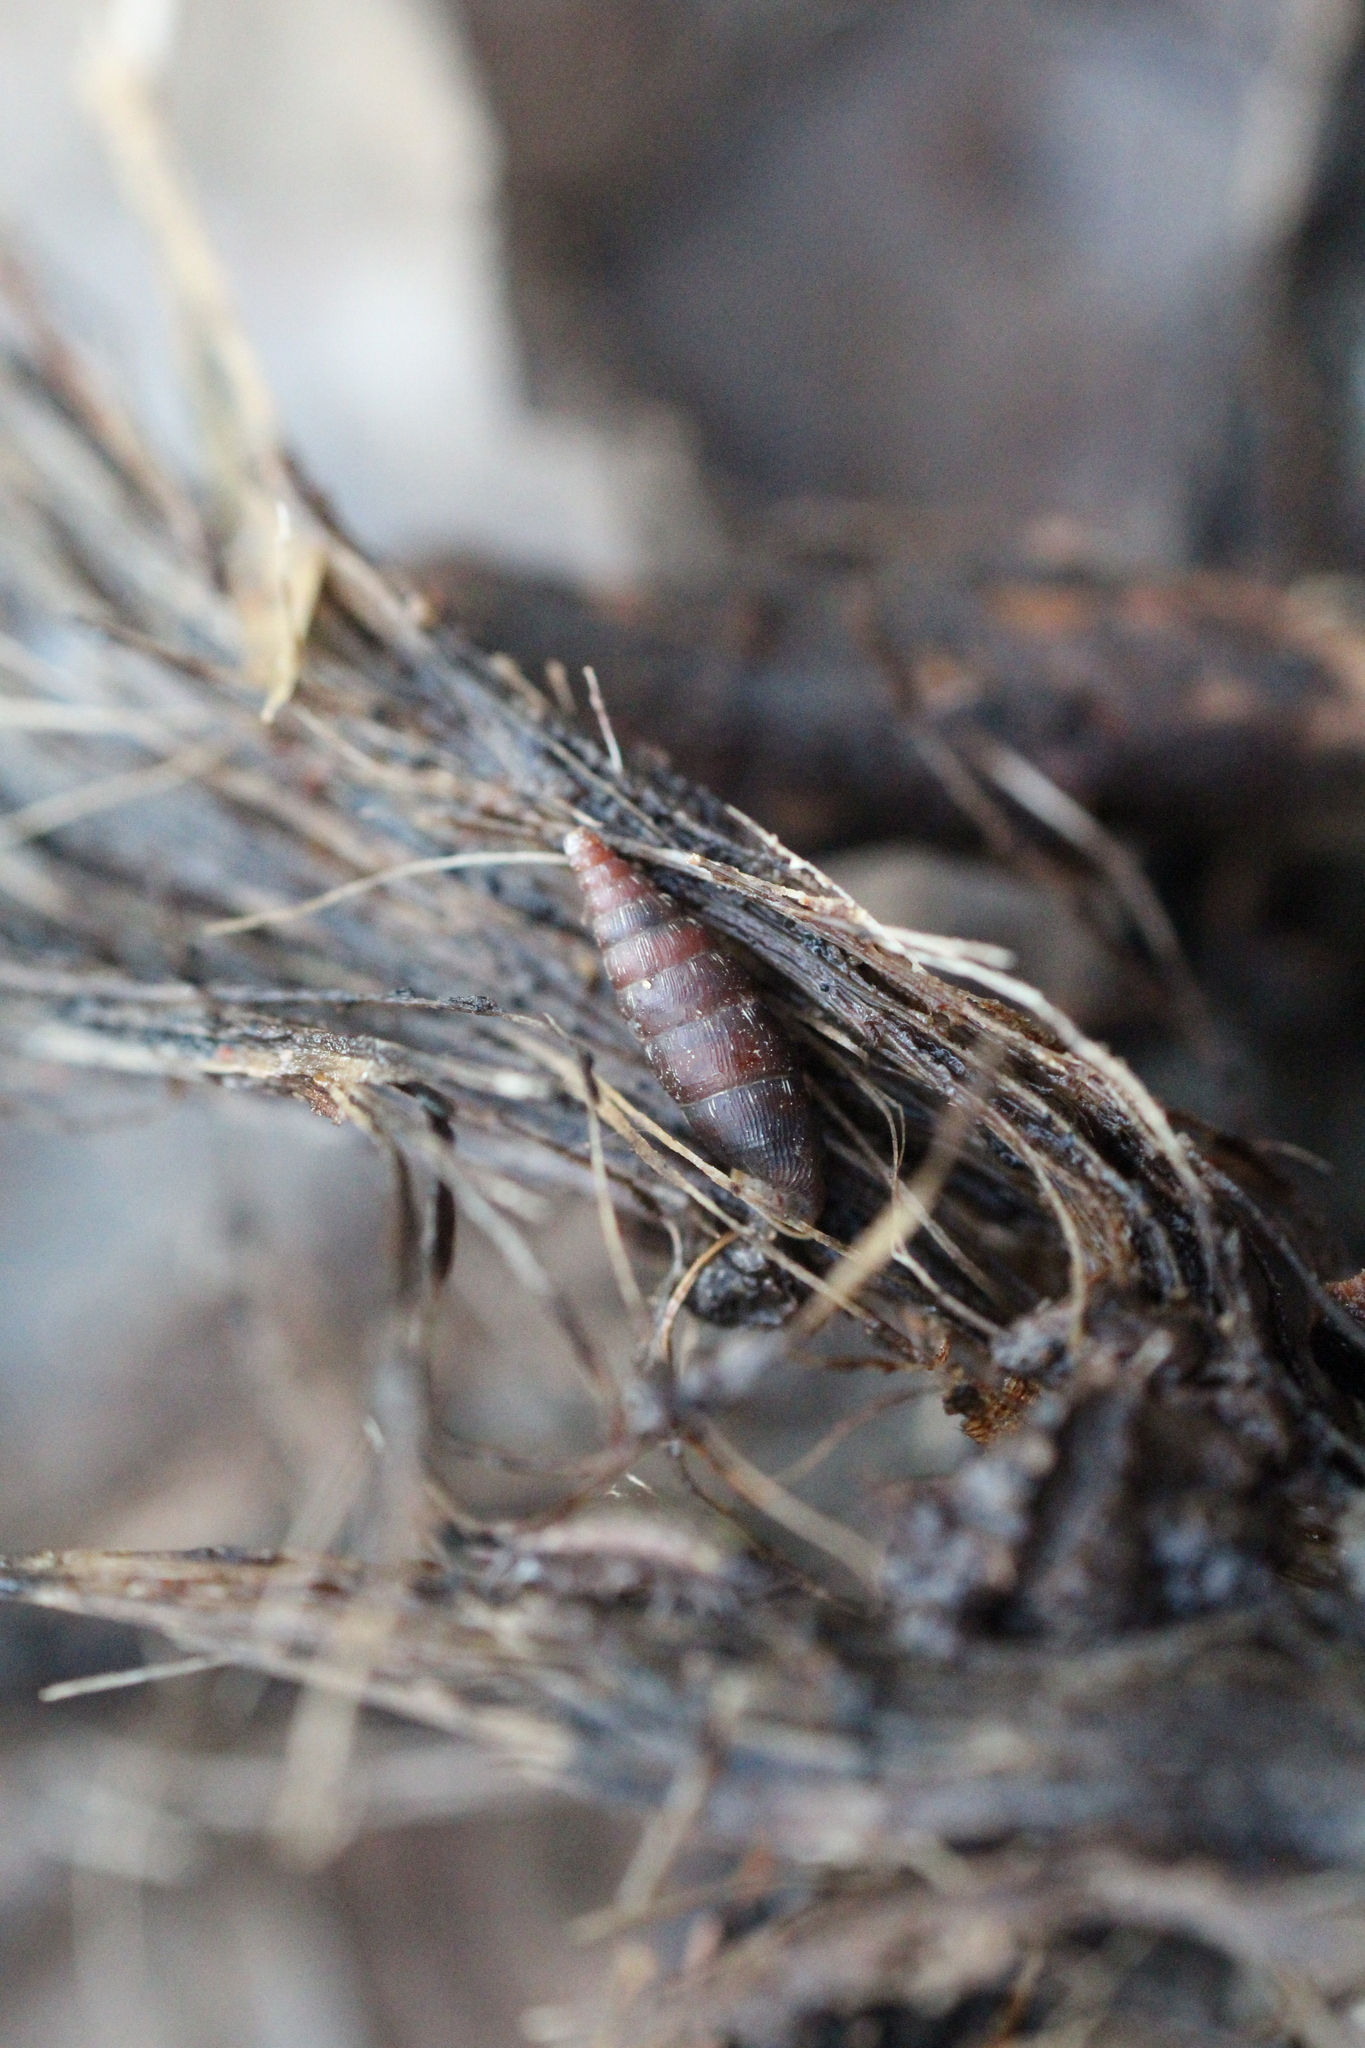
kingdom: Animalia
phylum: Mollusca
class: Gastropoda
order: Stylommatophora
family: Clausiliidae
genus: Clausilia
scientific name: Clausilia bidentata
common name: Two-toothed door snail
